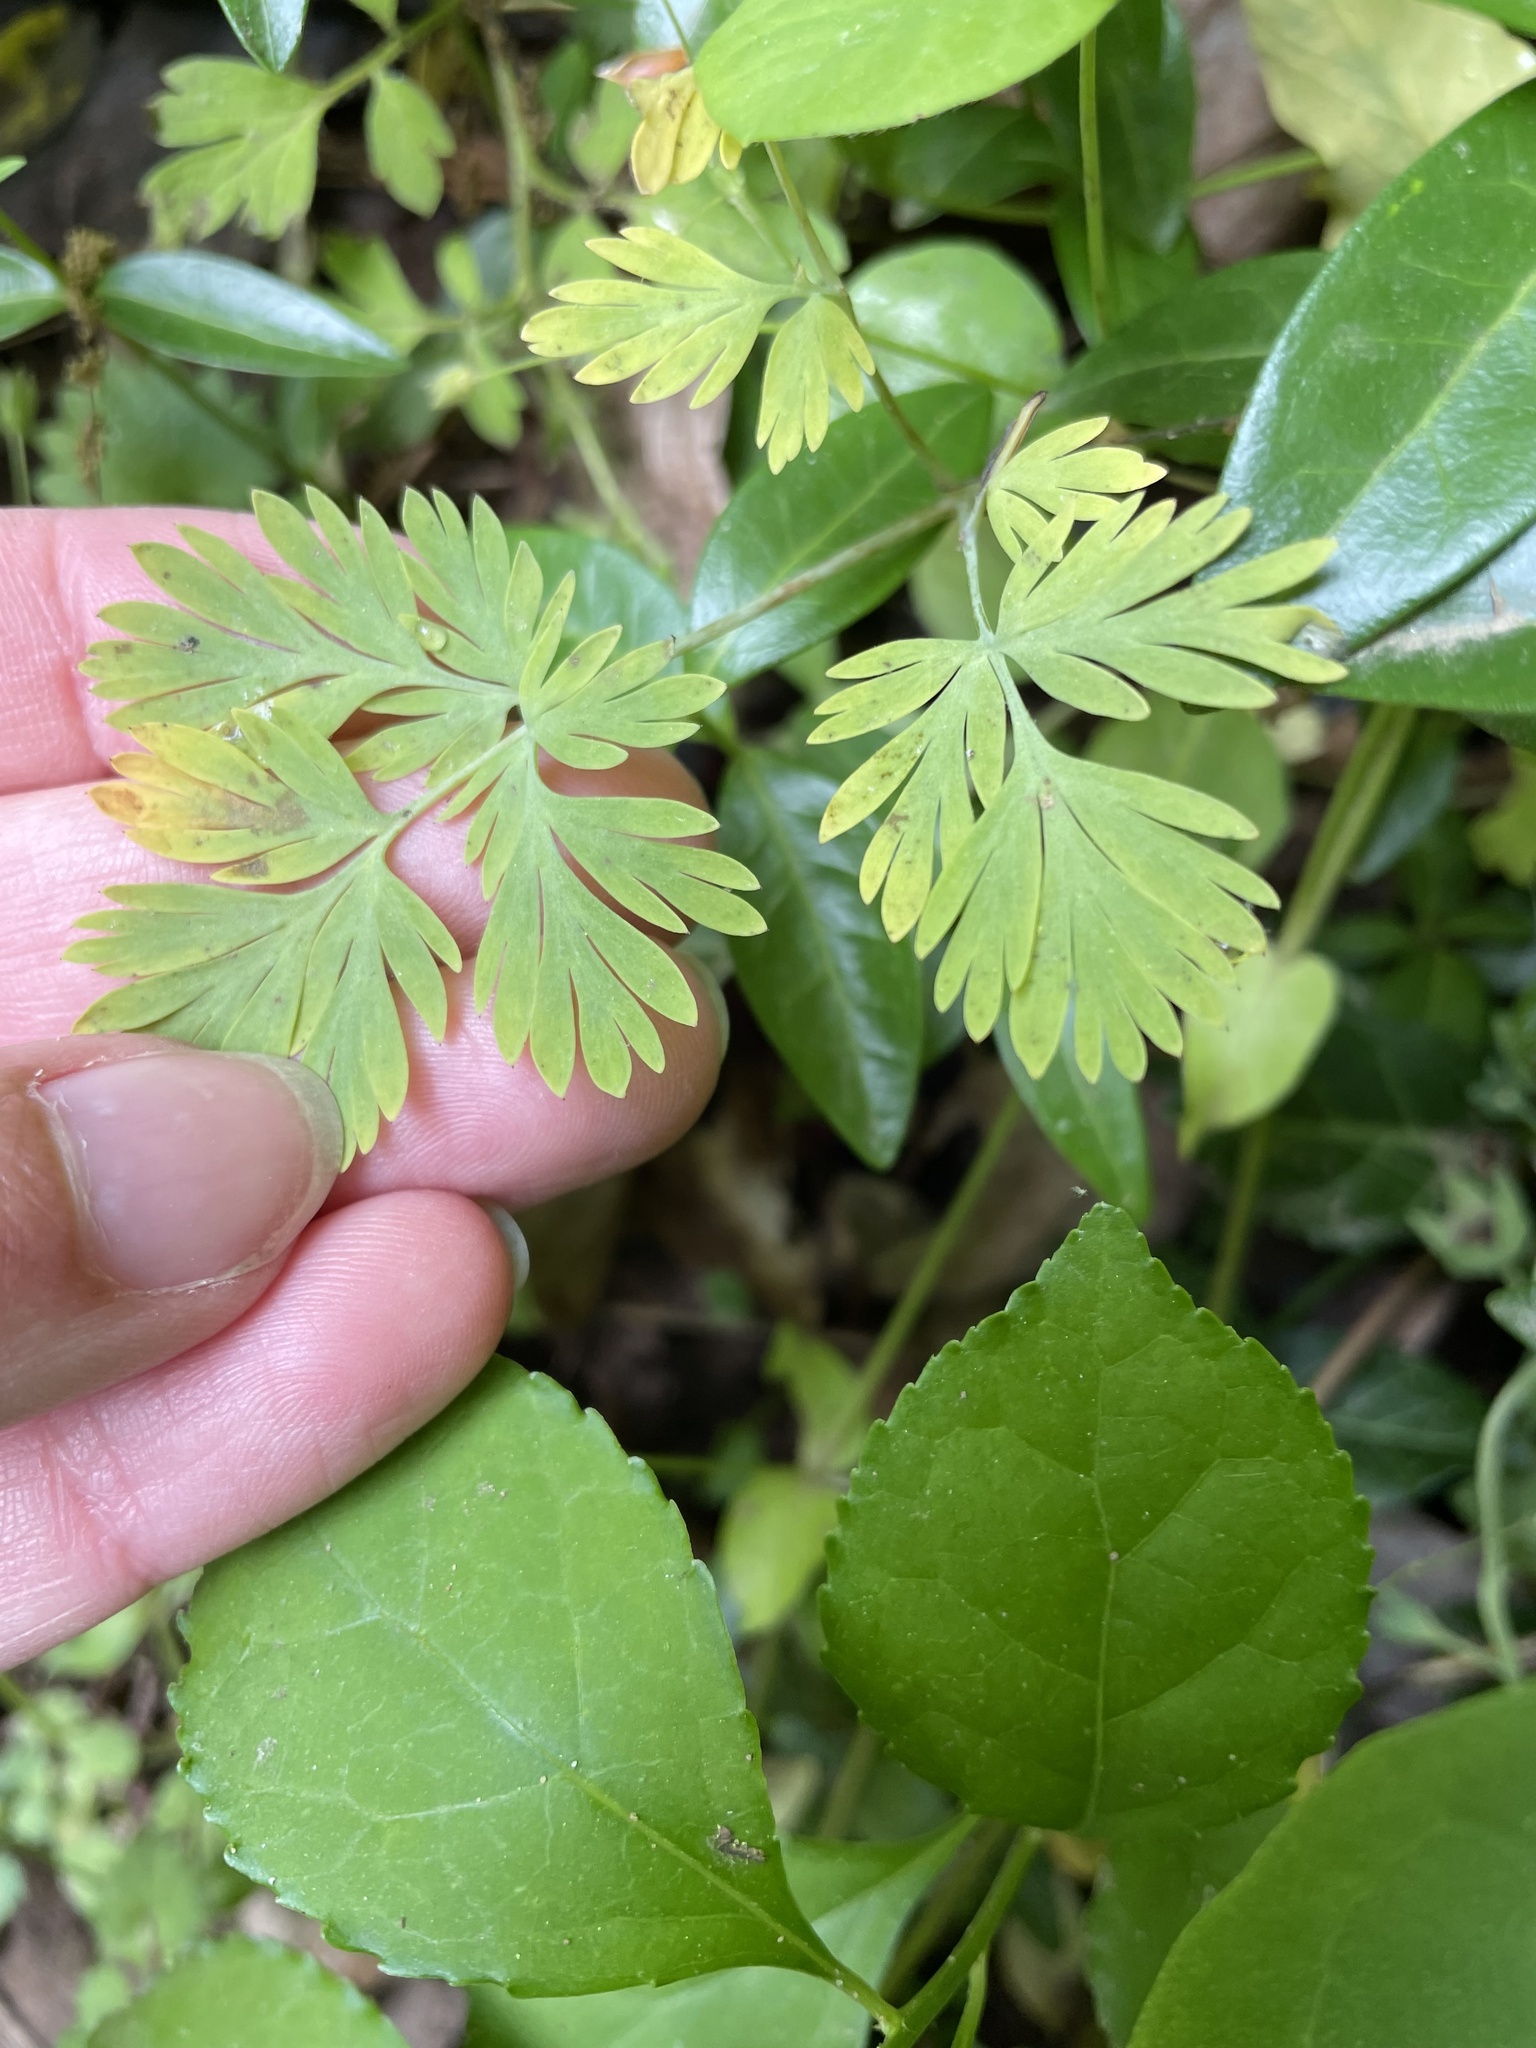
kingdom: Plantae
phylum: Tracheophyta
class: Magnoliopsida
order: Ranunculales
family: Papaveraceae
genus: Dicentra
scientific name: Dicentra cucullaria
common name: Dutchman's breeches
